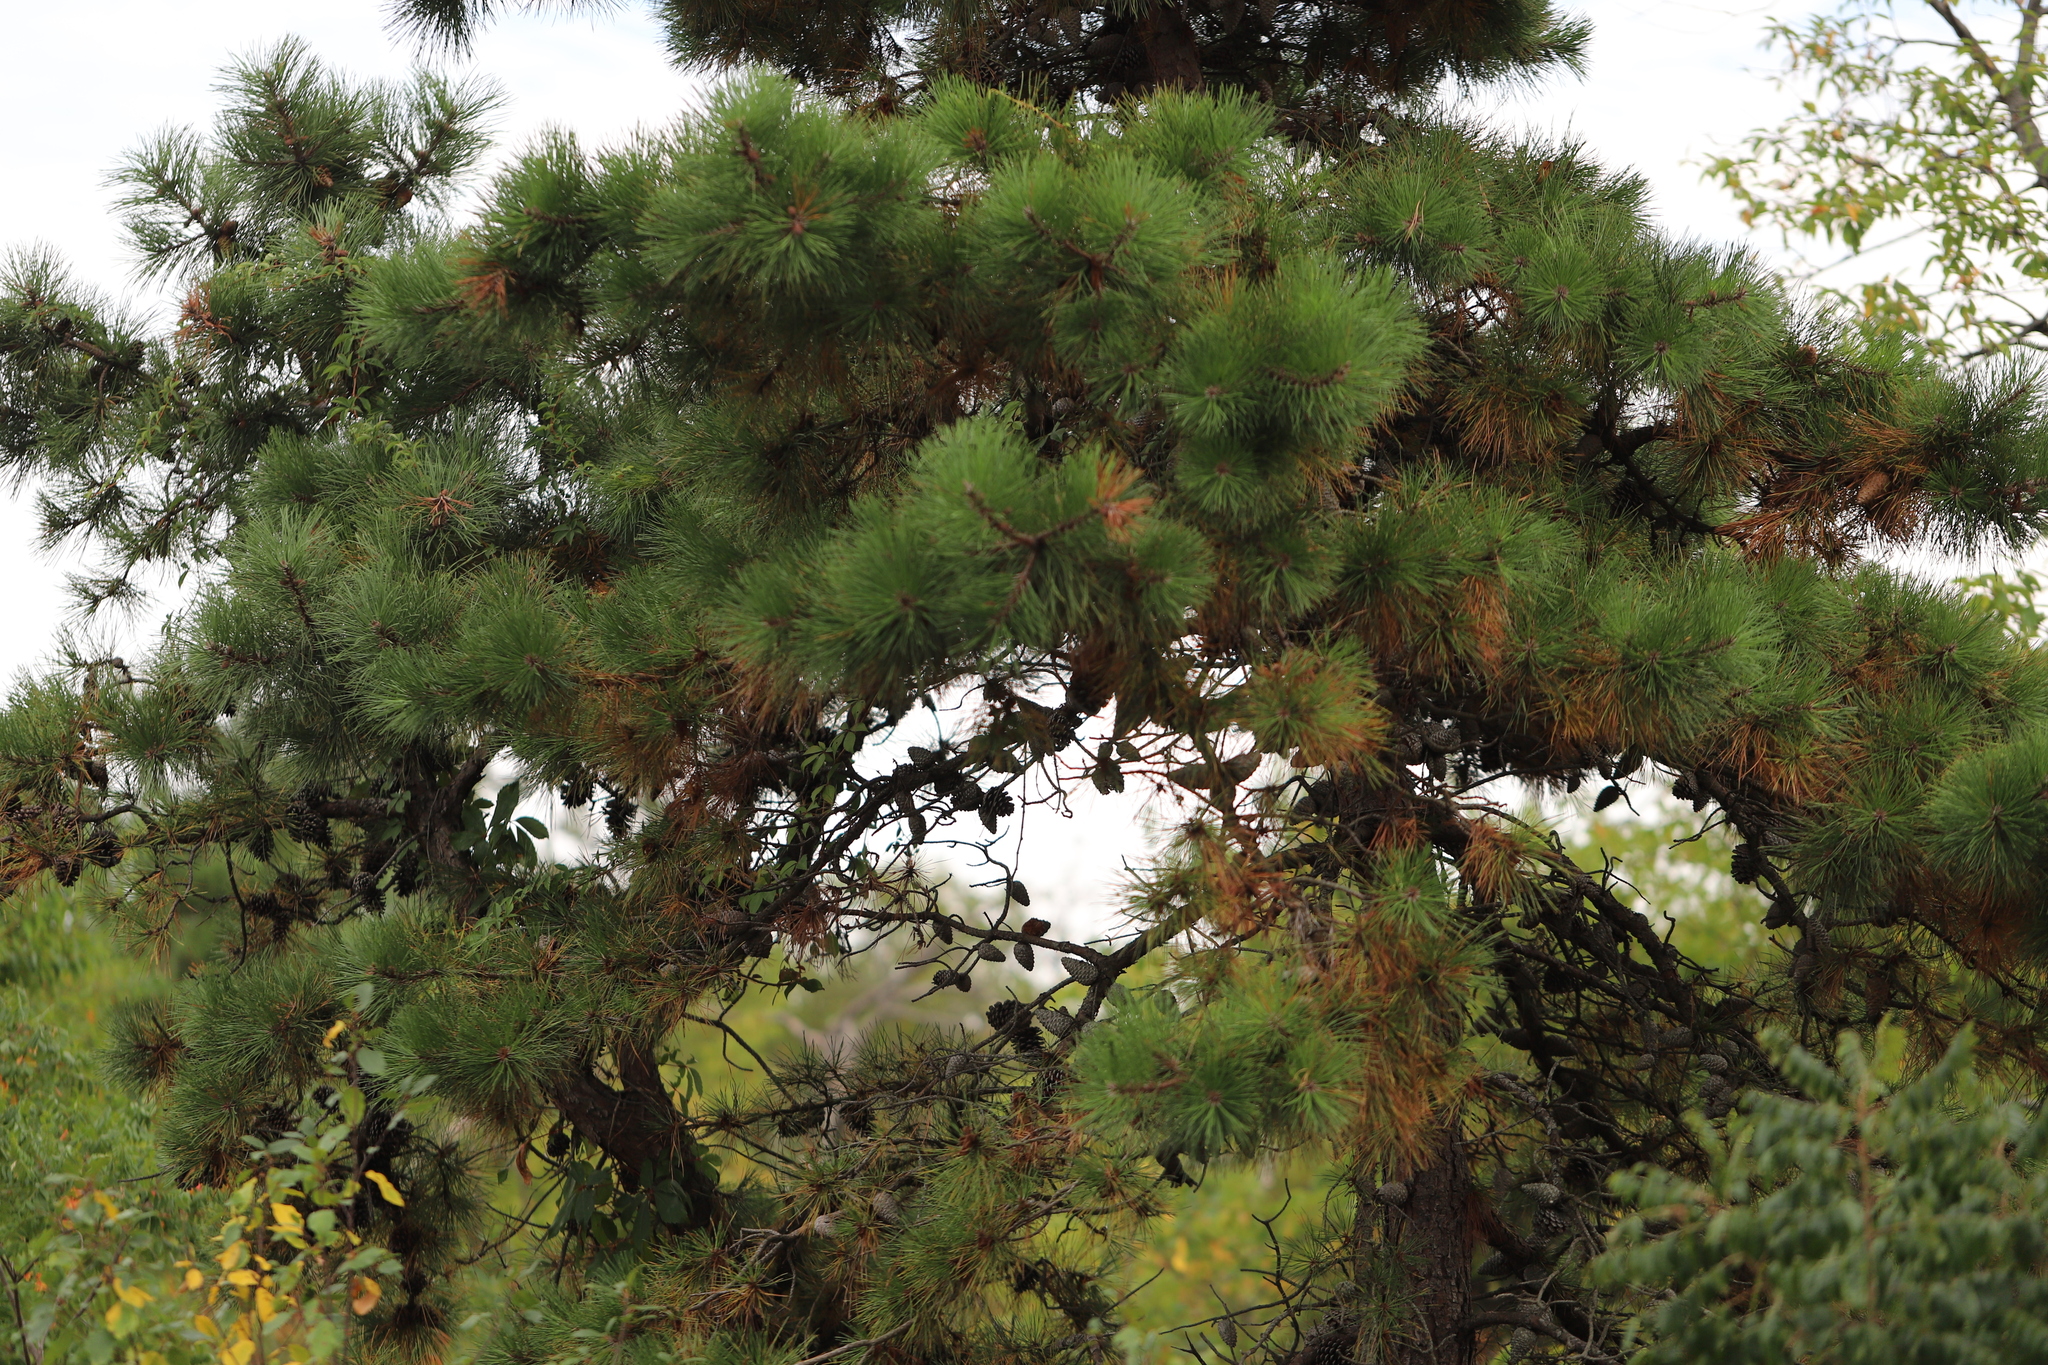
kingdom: Plantae
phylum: Tracheophyta
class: Pinopsida
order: Pinales
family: Pinaceae
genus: Pinus
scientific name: Pinus rigida
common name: Pitch pine
